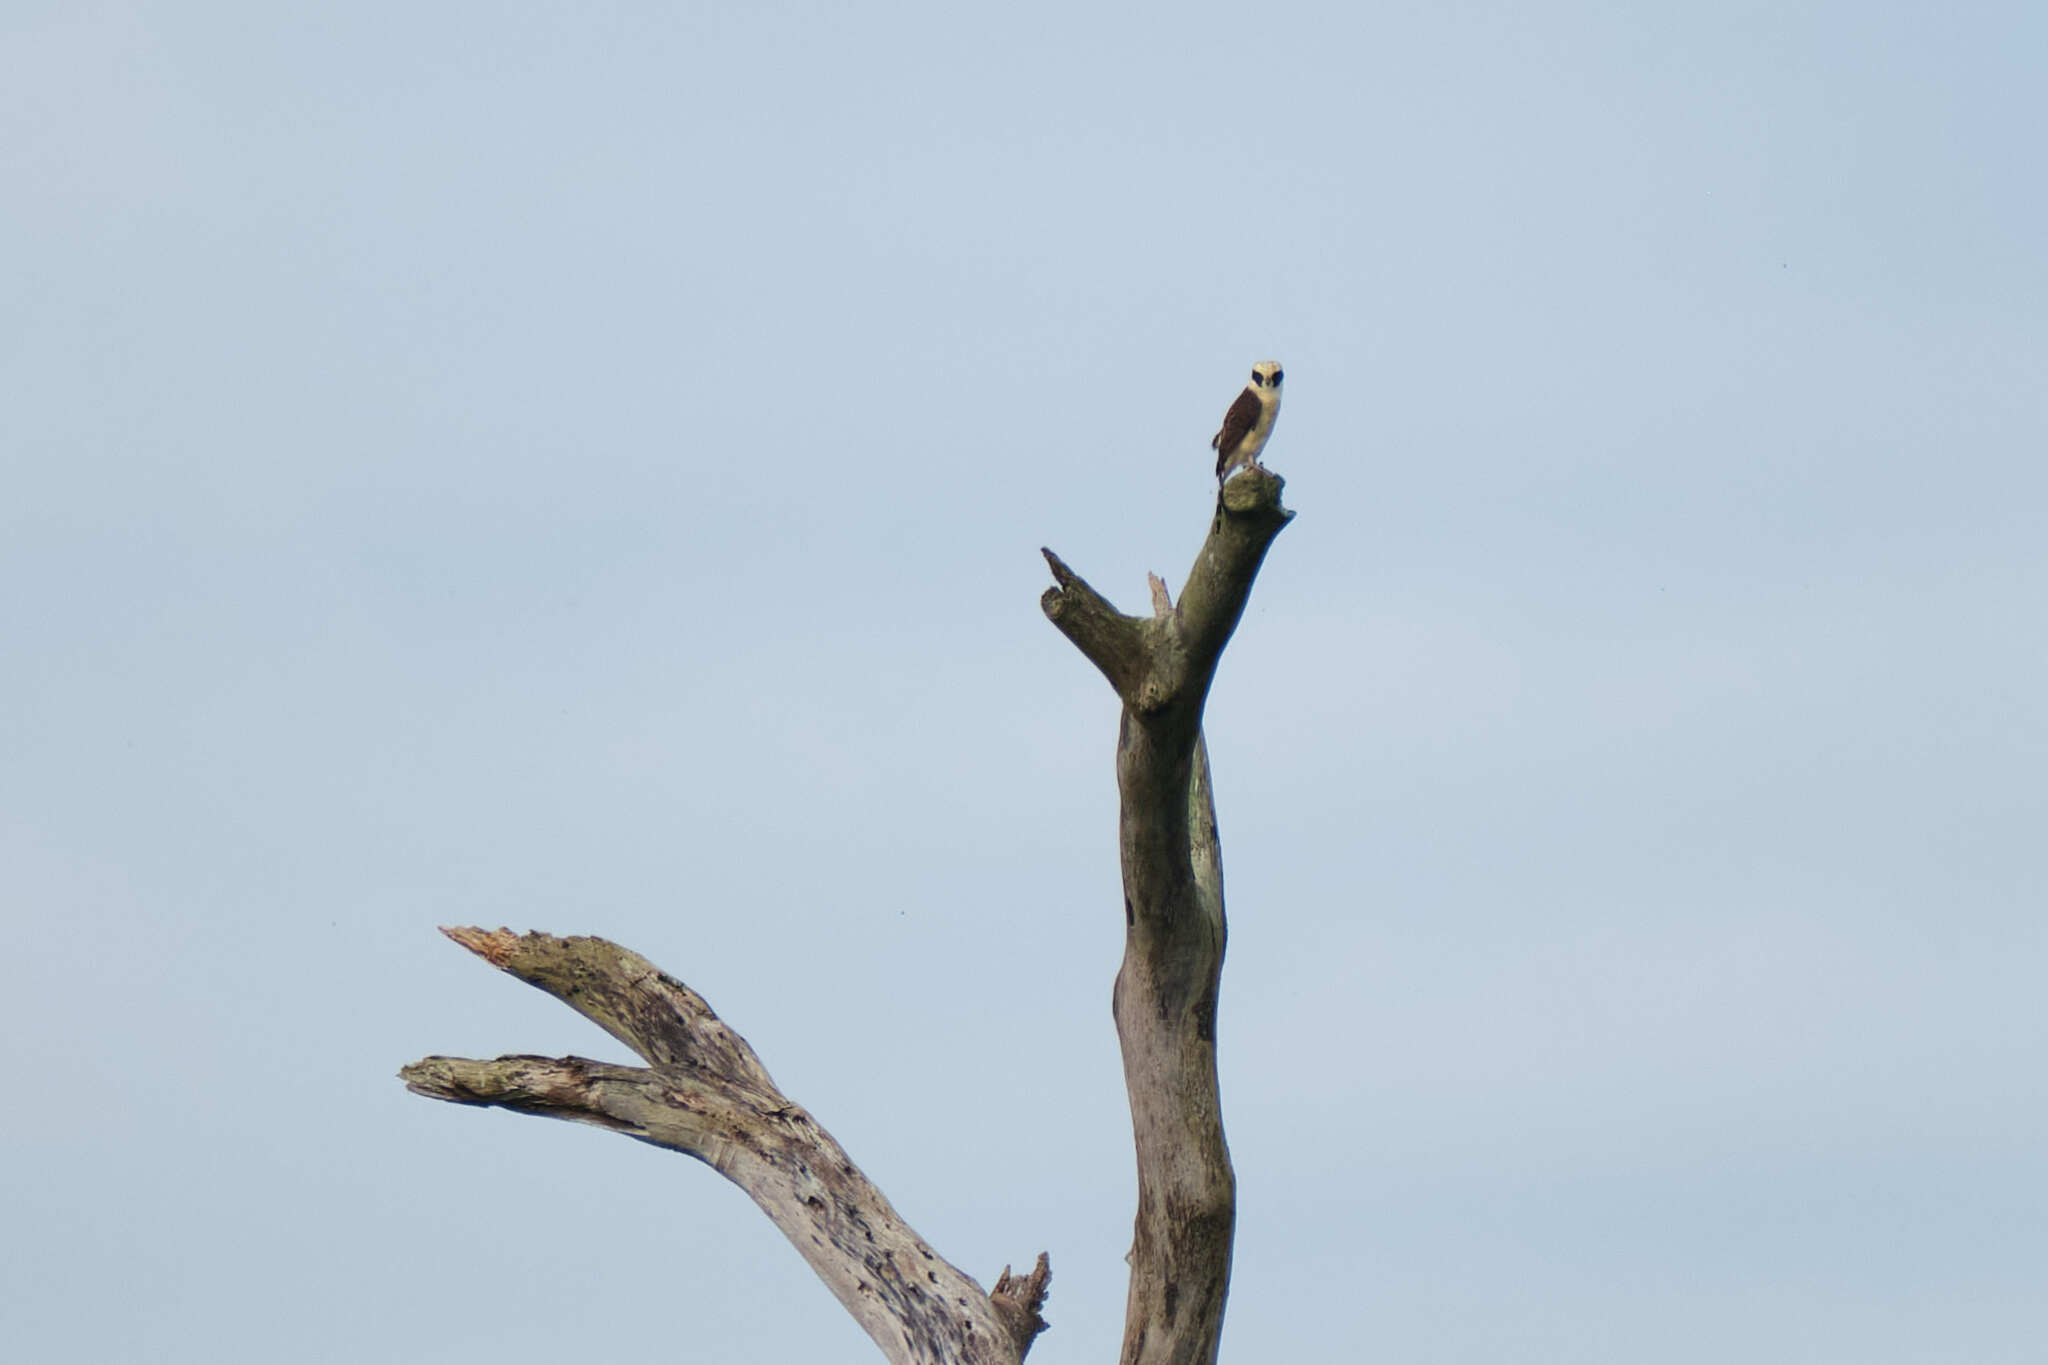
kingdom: Animalia
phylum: Chordata
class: Aves
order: Falconiformes
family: Falconidae
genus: Herpetotheres
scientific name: Herpetotheres cachinnans
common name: Laughing falcon
